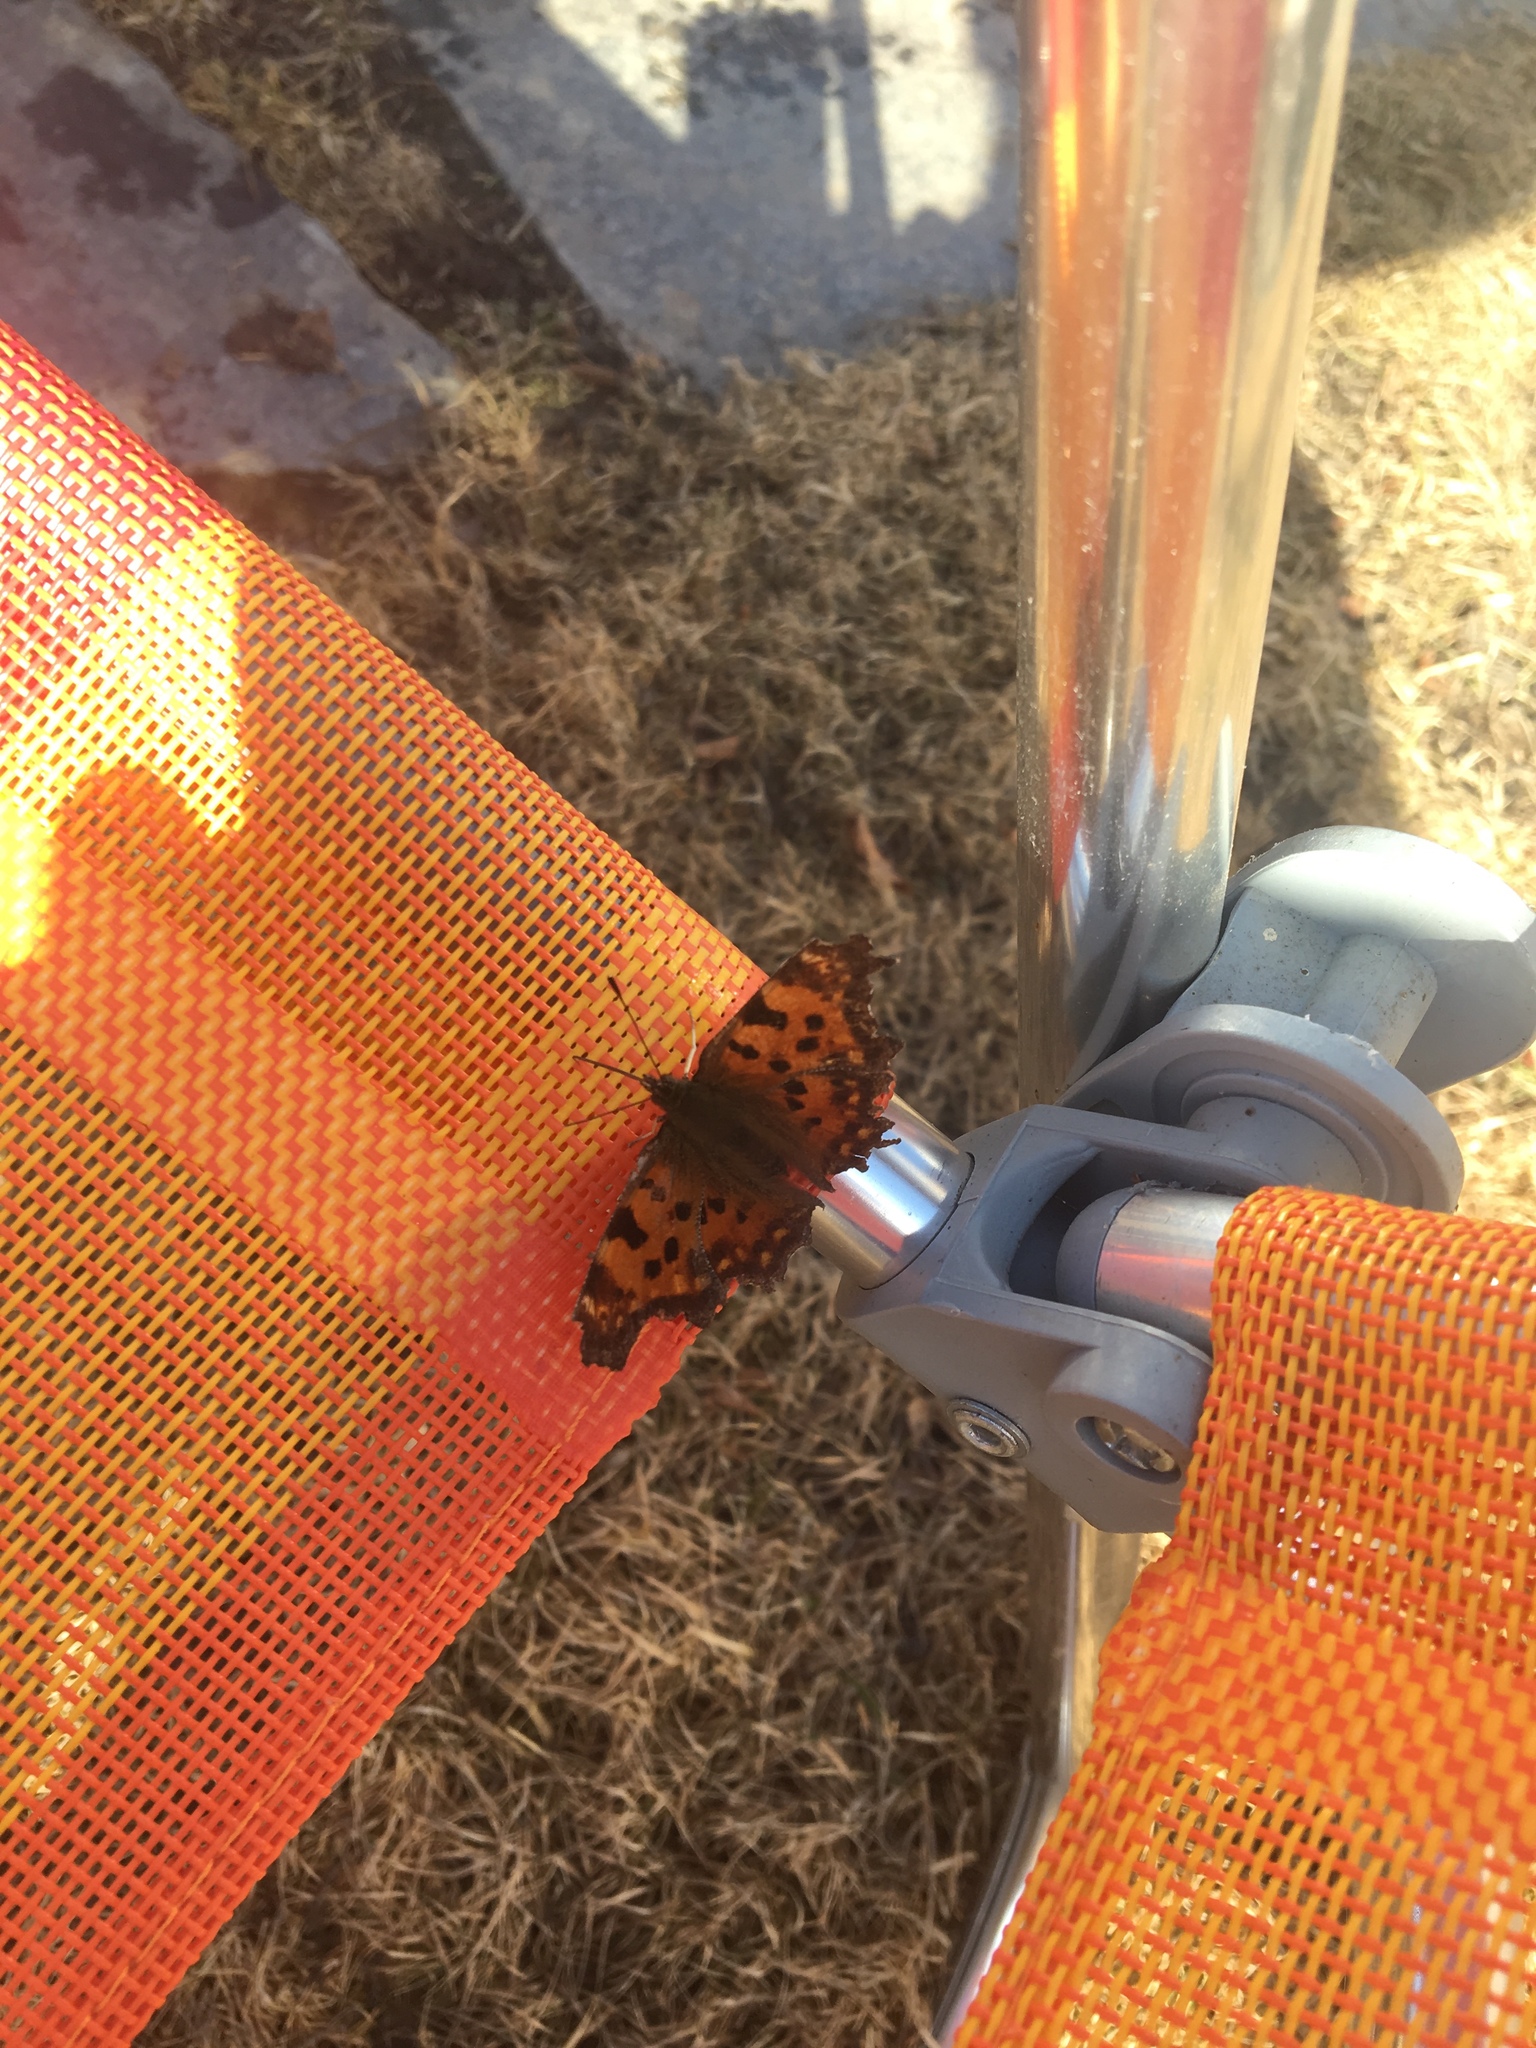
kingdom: Animalia
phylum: Arthropoda
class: Insecta
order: Lepidoptera
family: Nymphalidae
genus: Polygonia
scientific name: Polygonia c-album
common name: Comma
